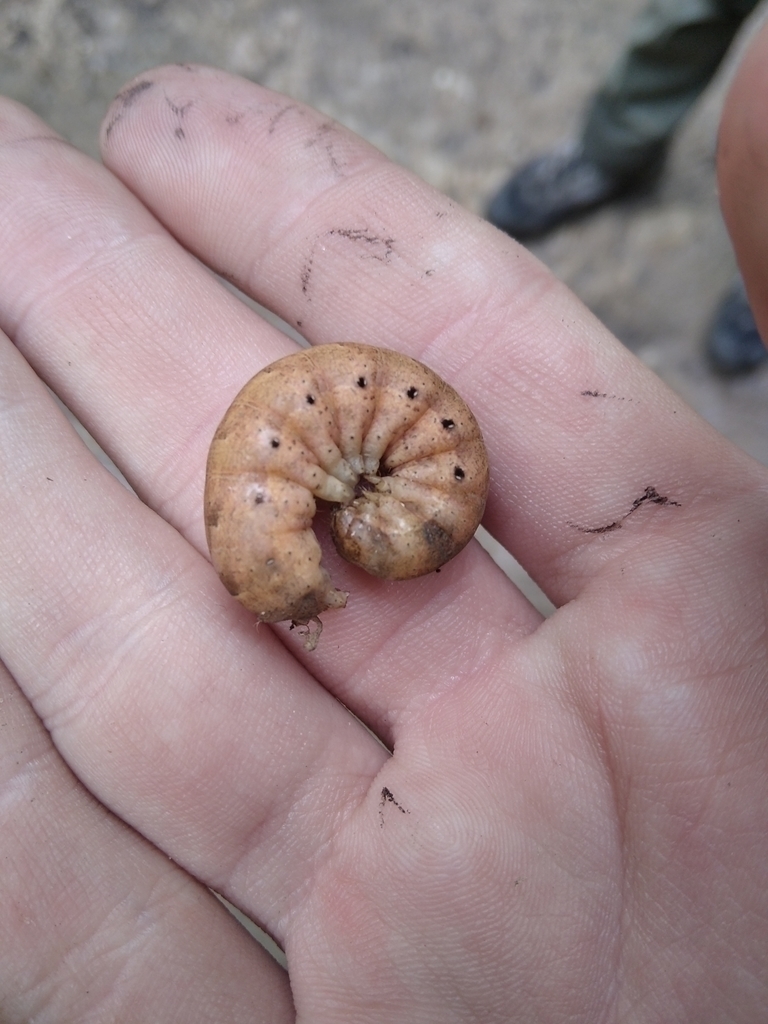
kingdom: Animalia
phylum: Arthropoda
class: Insecta
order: Lepidoptera
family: Noctuidae
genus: Noctua
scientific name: Noctua fimbriata
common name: Broad-bordered yellow underwing
